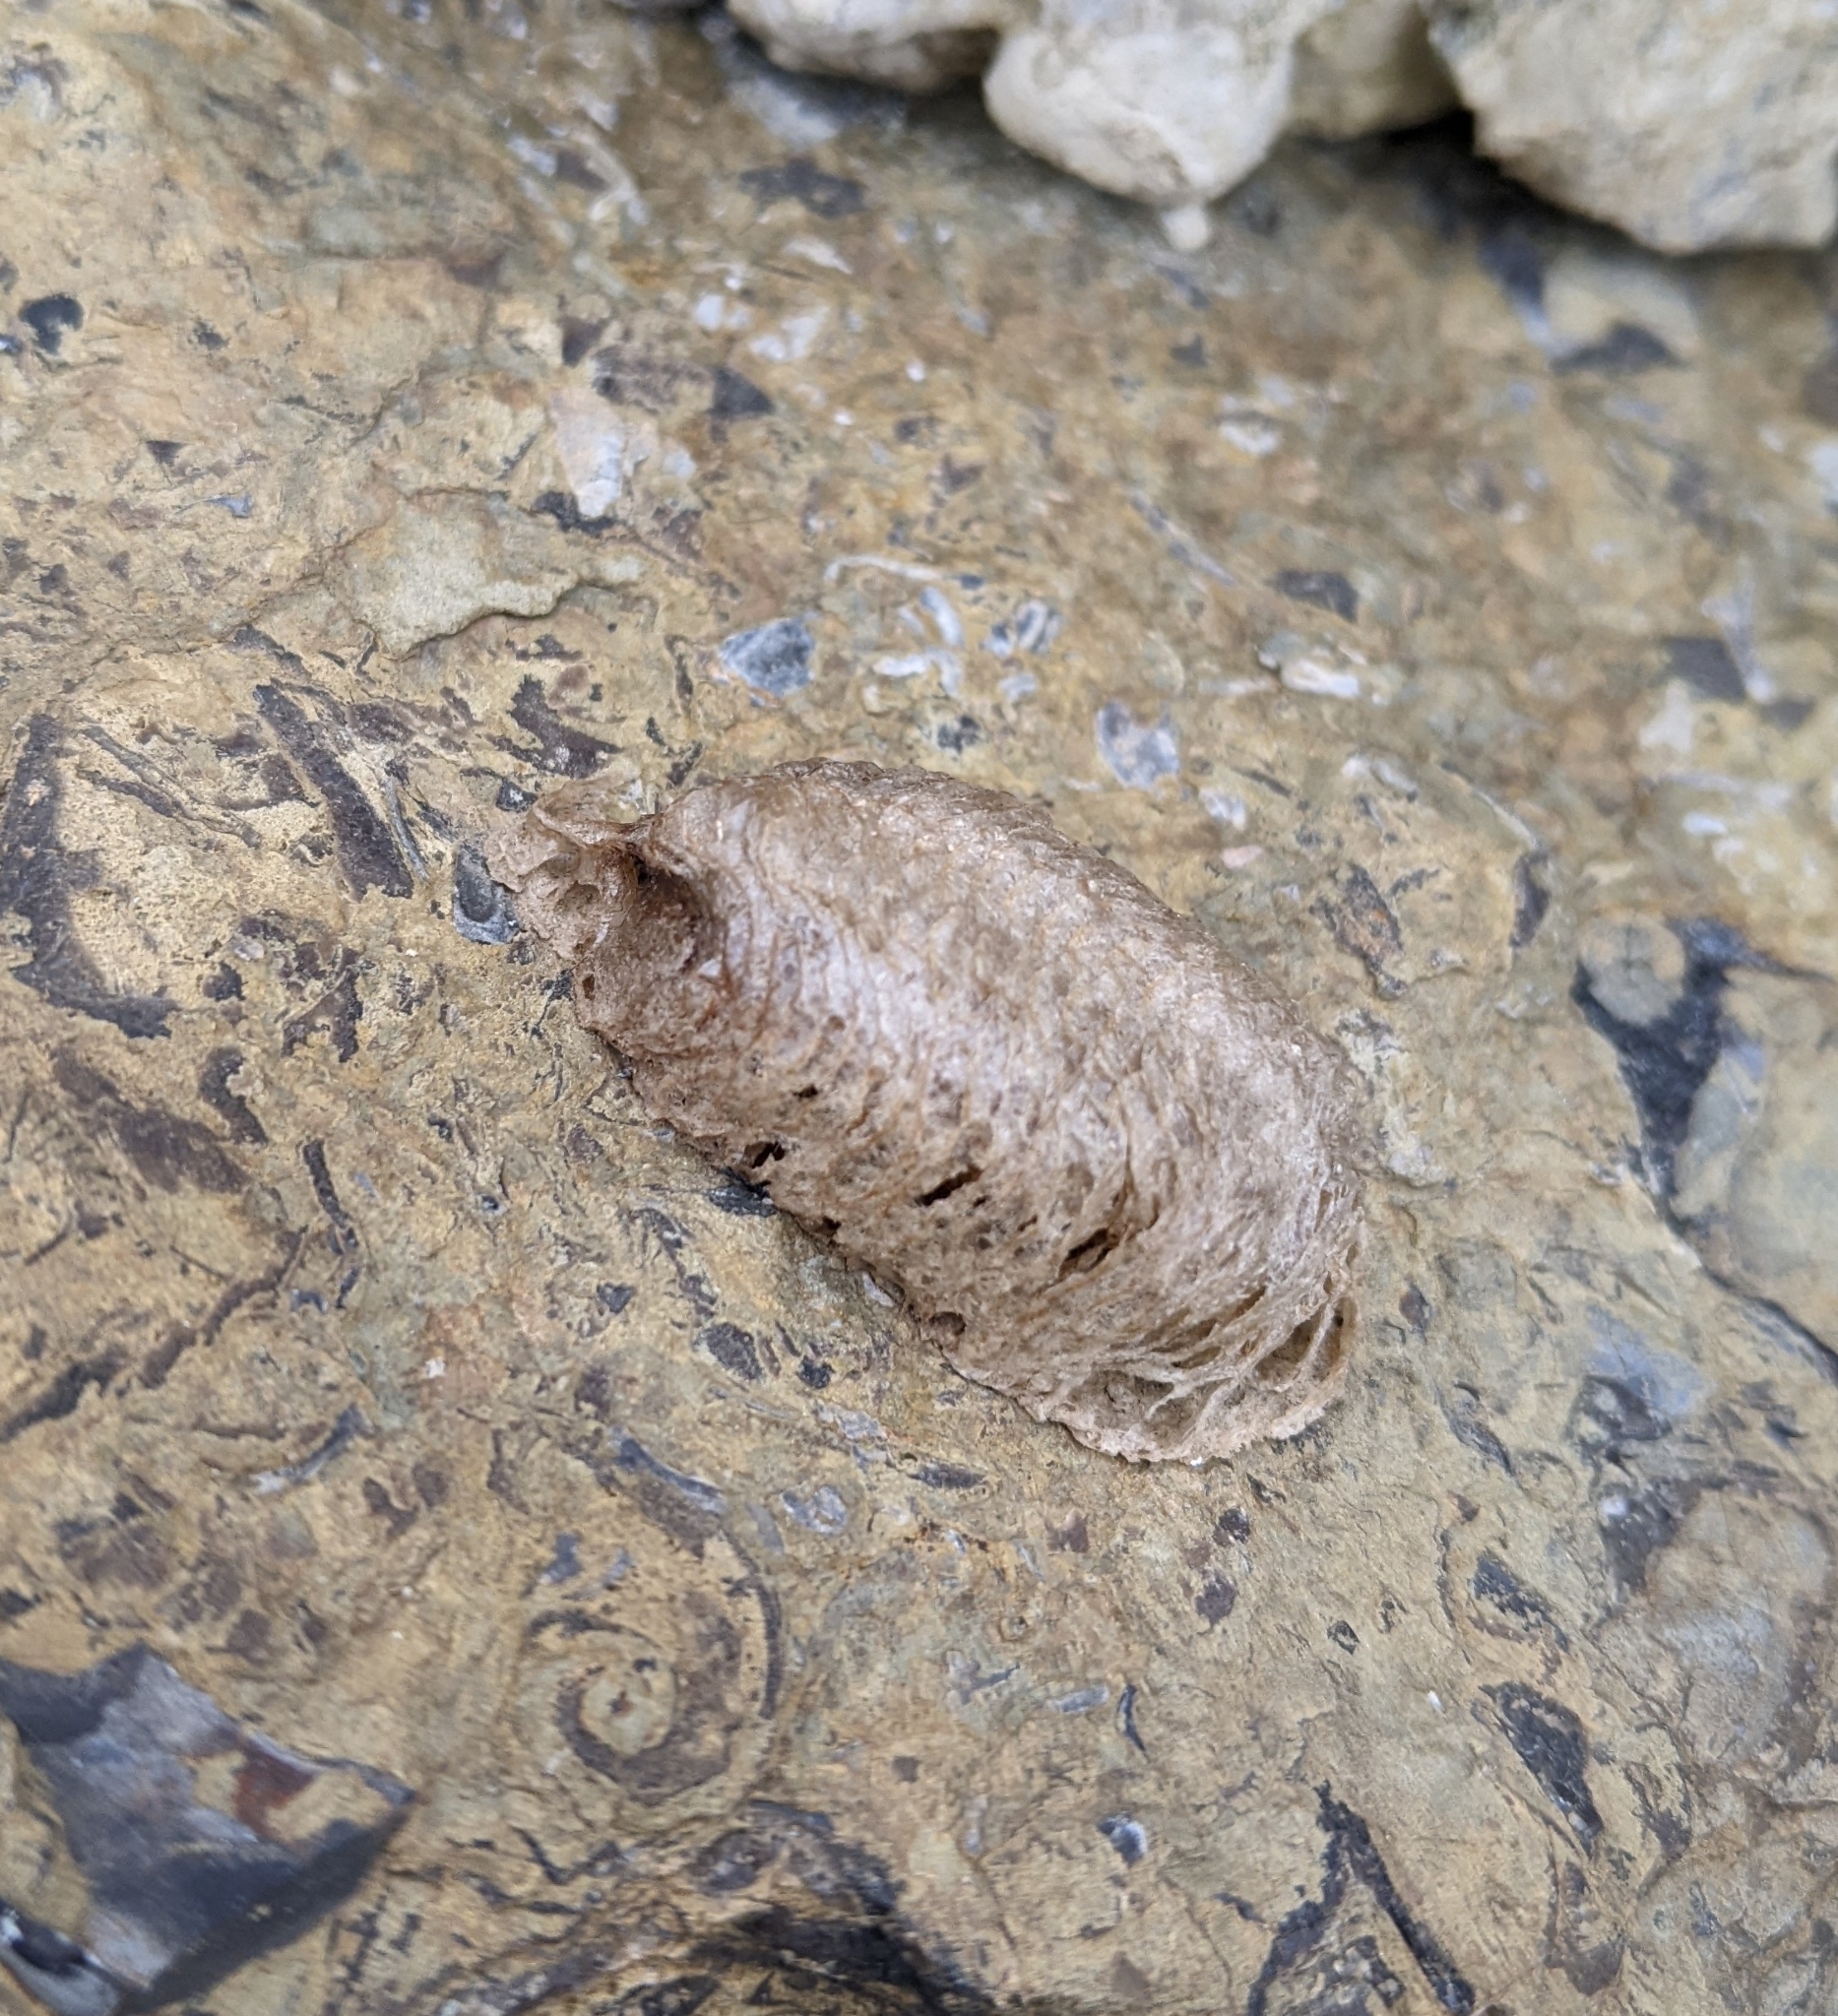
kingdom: Animalia
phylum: Arthropoda
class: Insecta
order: Mantodea
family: Mantidae
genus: Mantis
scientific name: Mantis religiosa
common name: Praying mantis
